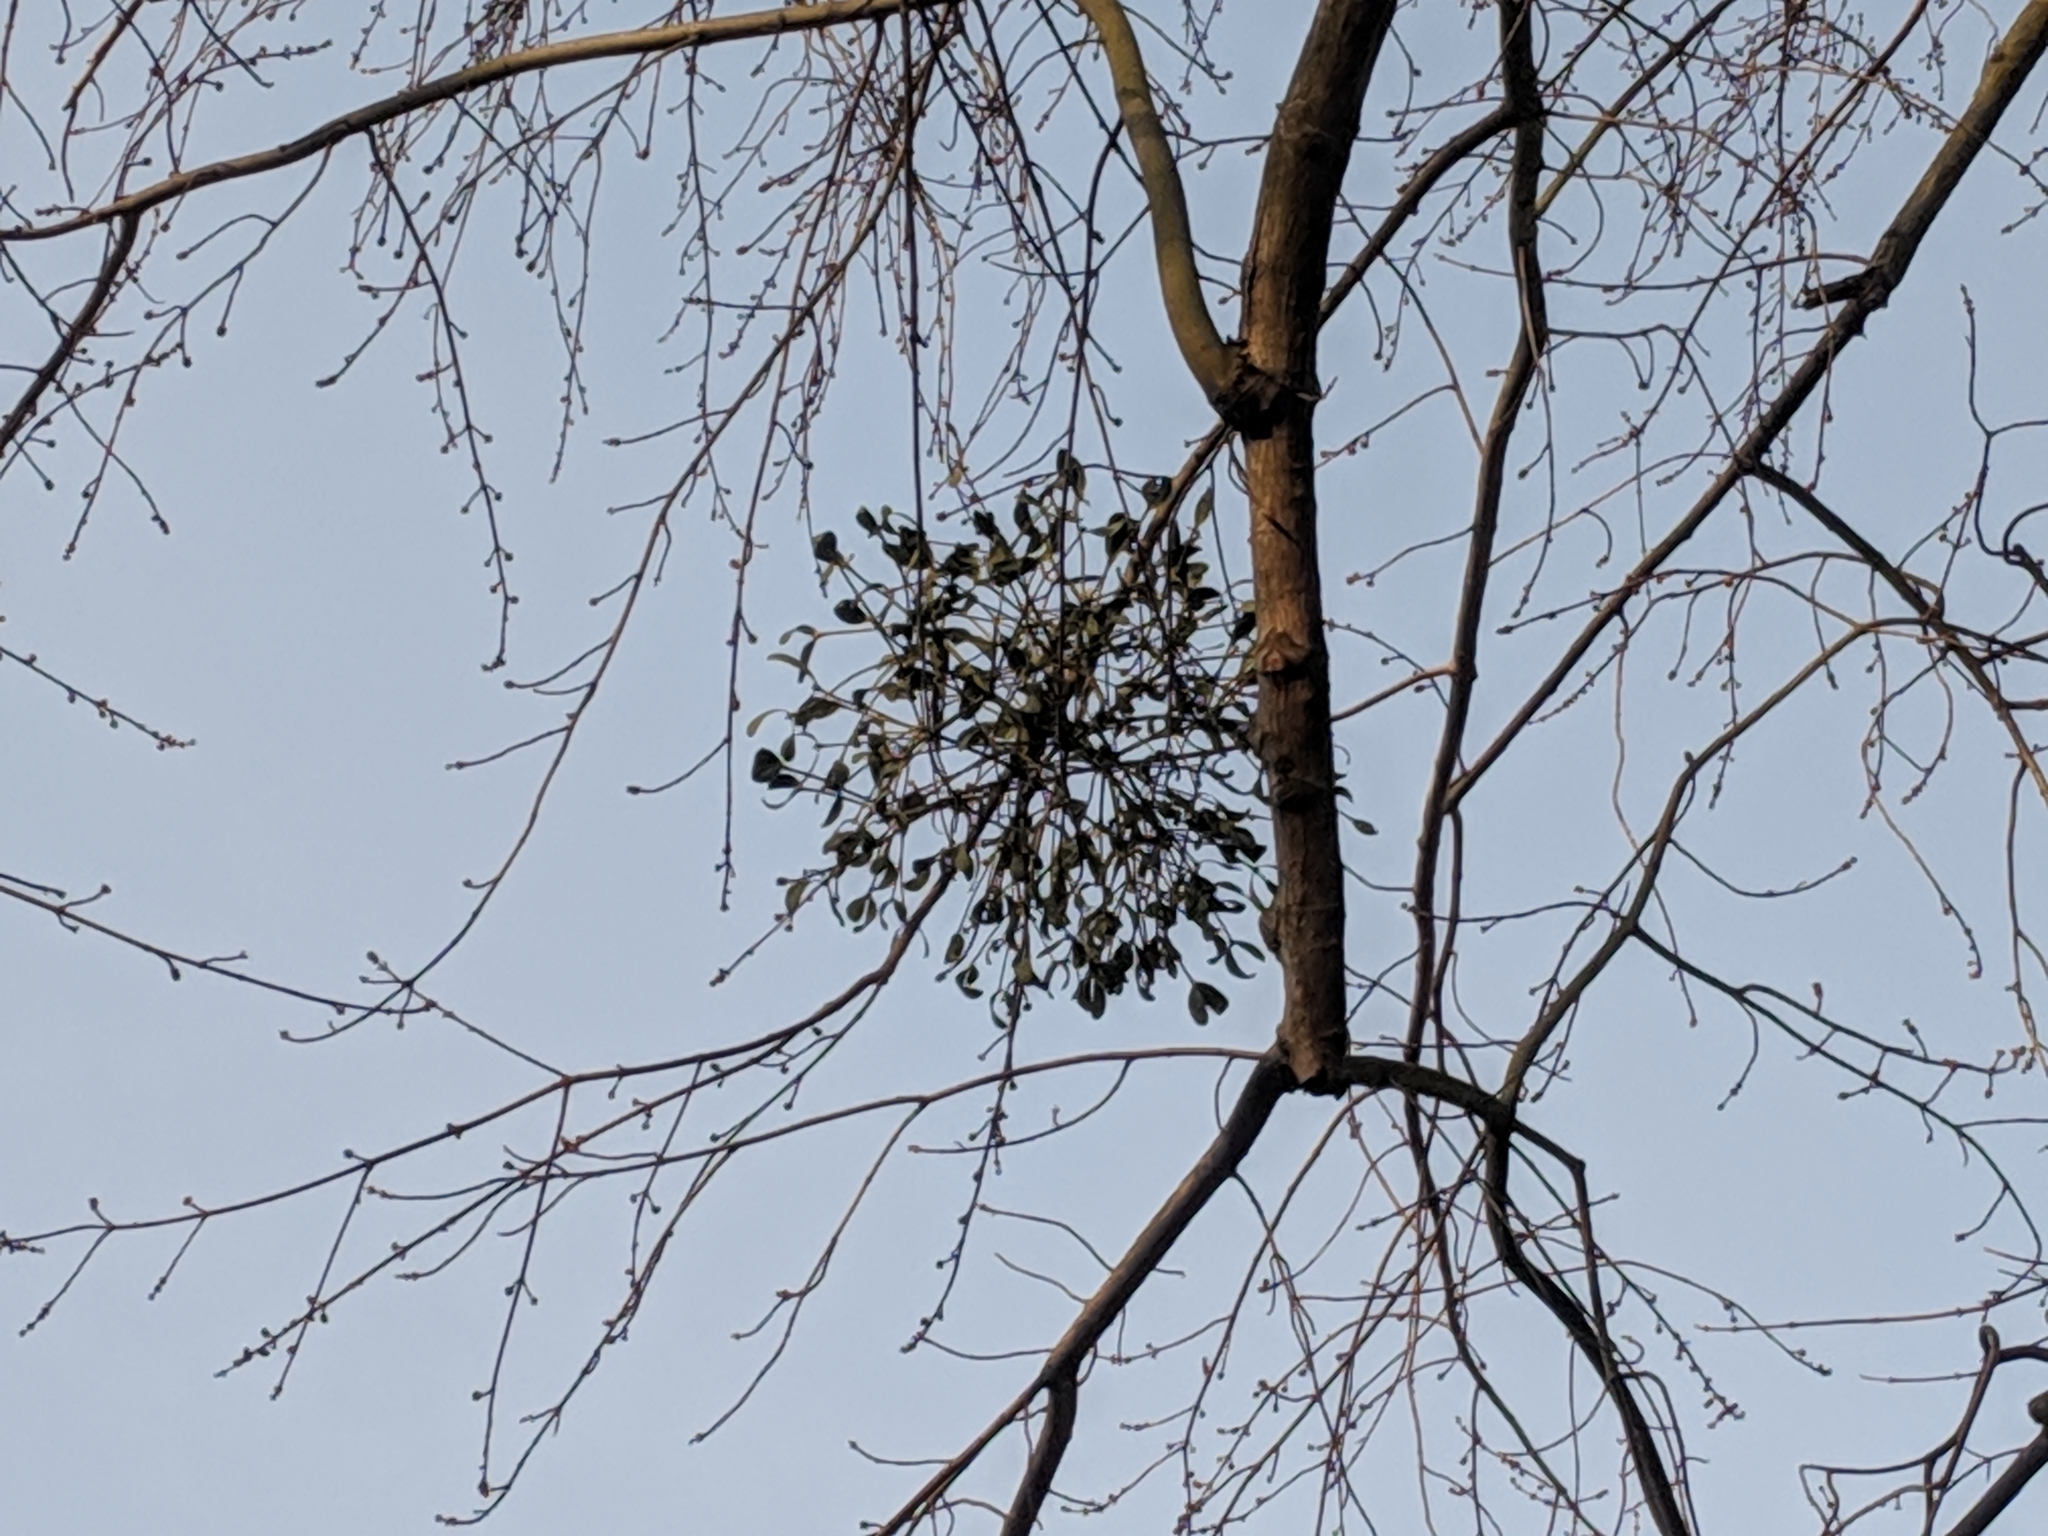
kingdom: Plantae
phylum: Tracheophyta
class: Magnoliopsida
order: Santalales
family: Viscaceae
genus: Viscum
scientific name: Viscum album
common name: Mistletoe
